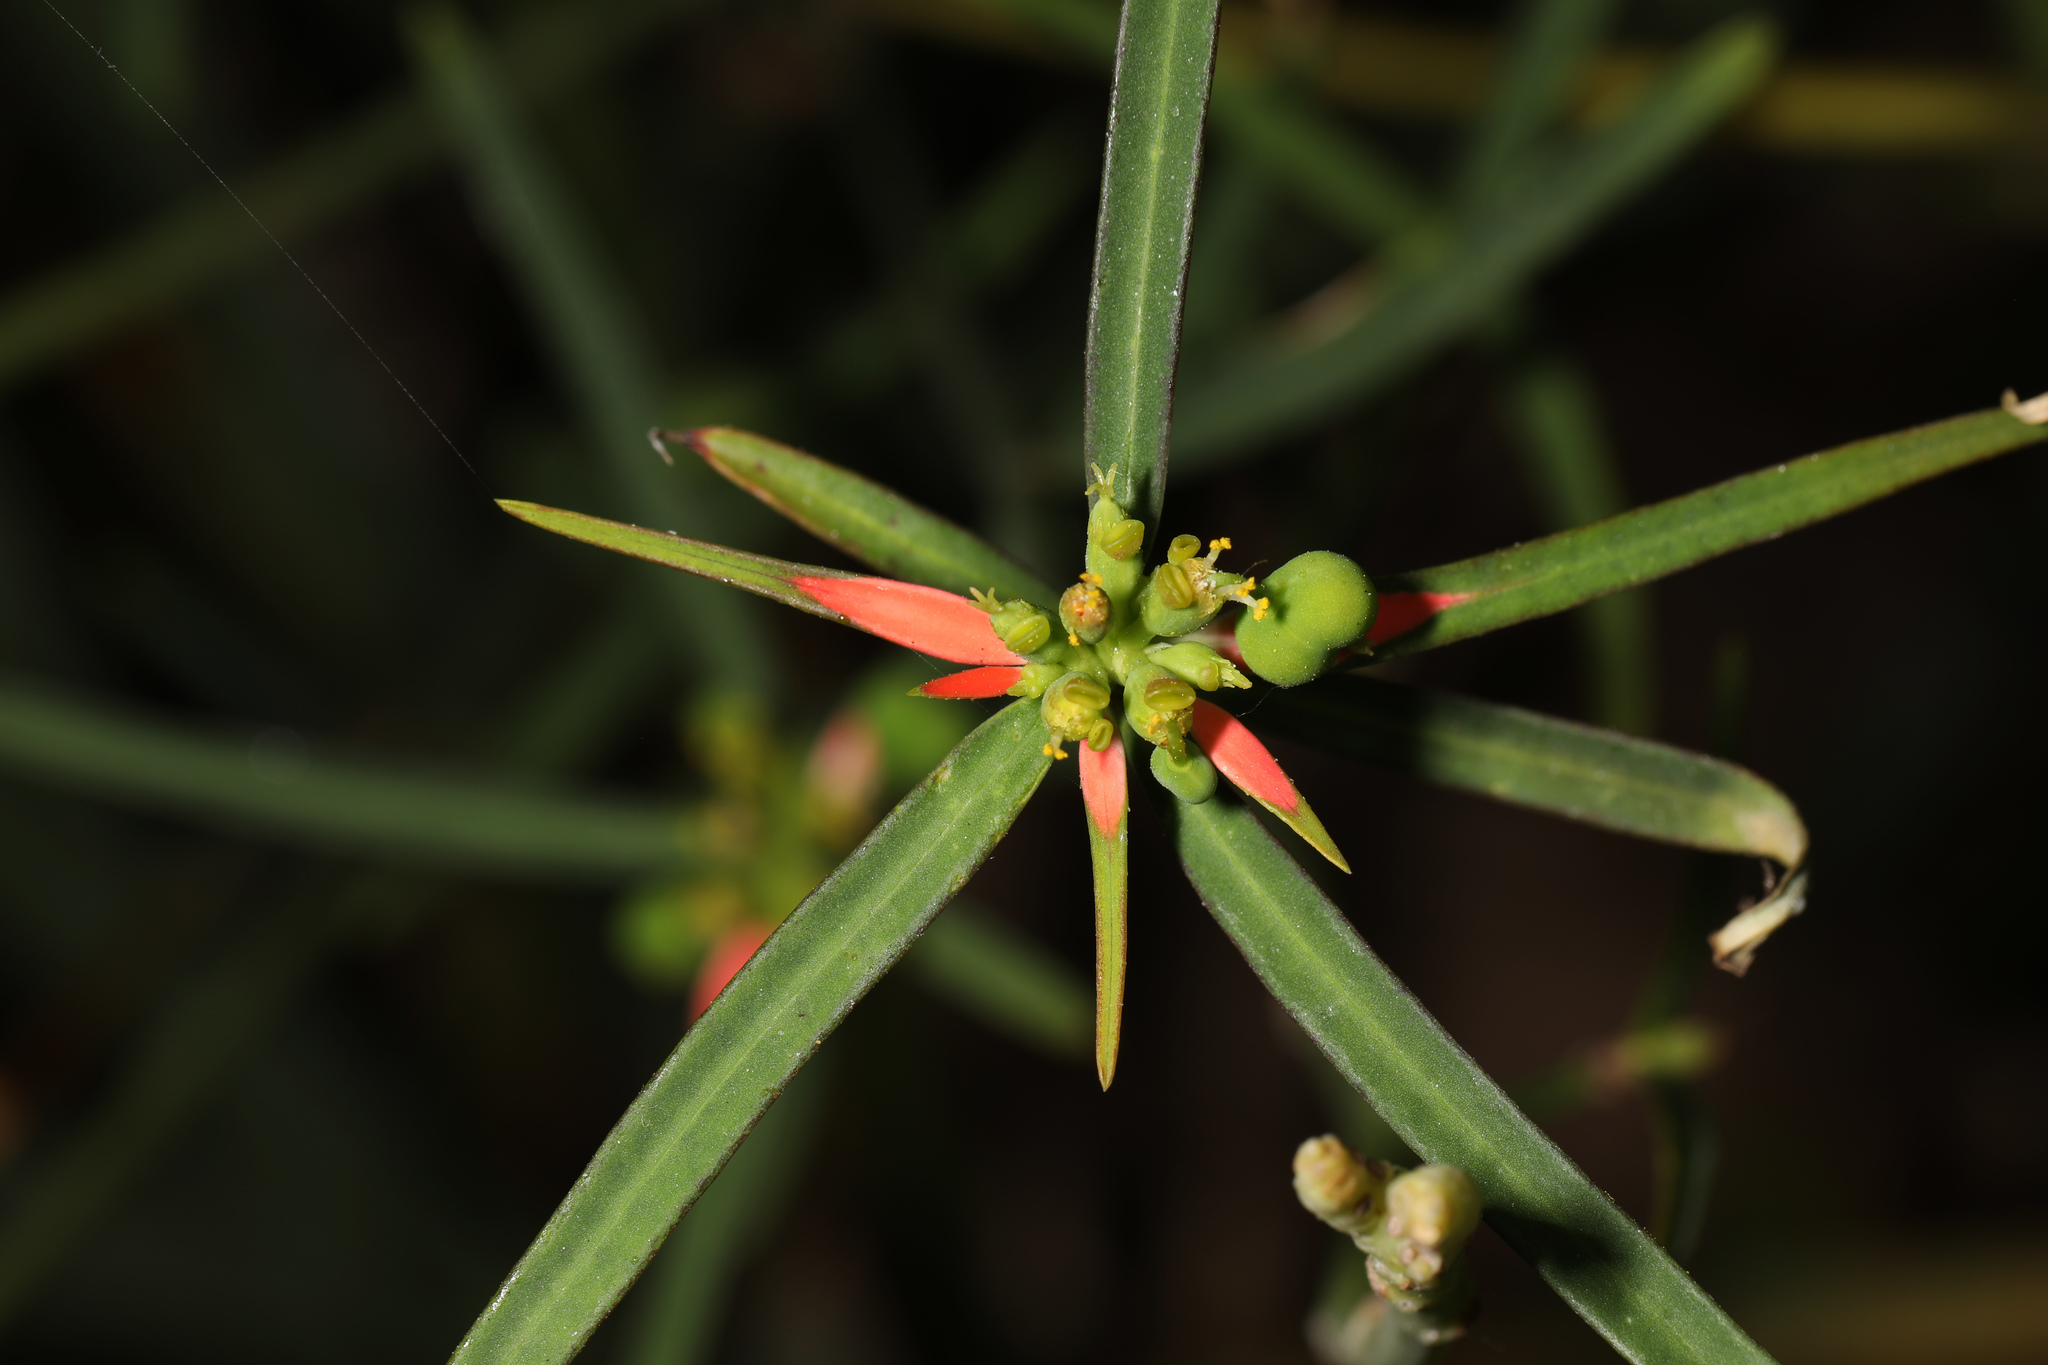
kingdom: Plantae
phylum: Tracheophyta
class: Magnoliopsida
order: Malpighiales
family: Euphorbiaceae
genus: Euphorbia
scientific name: Euphorbia heterophylla
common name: Mexican fireplant
